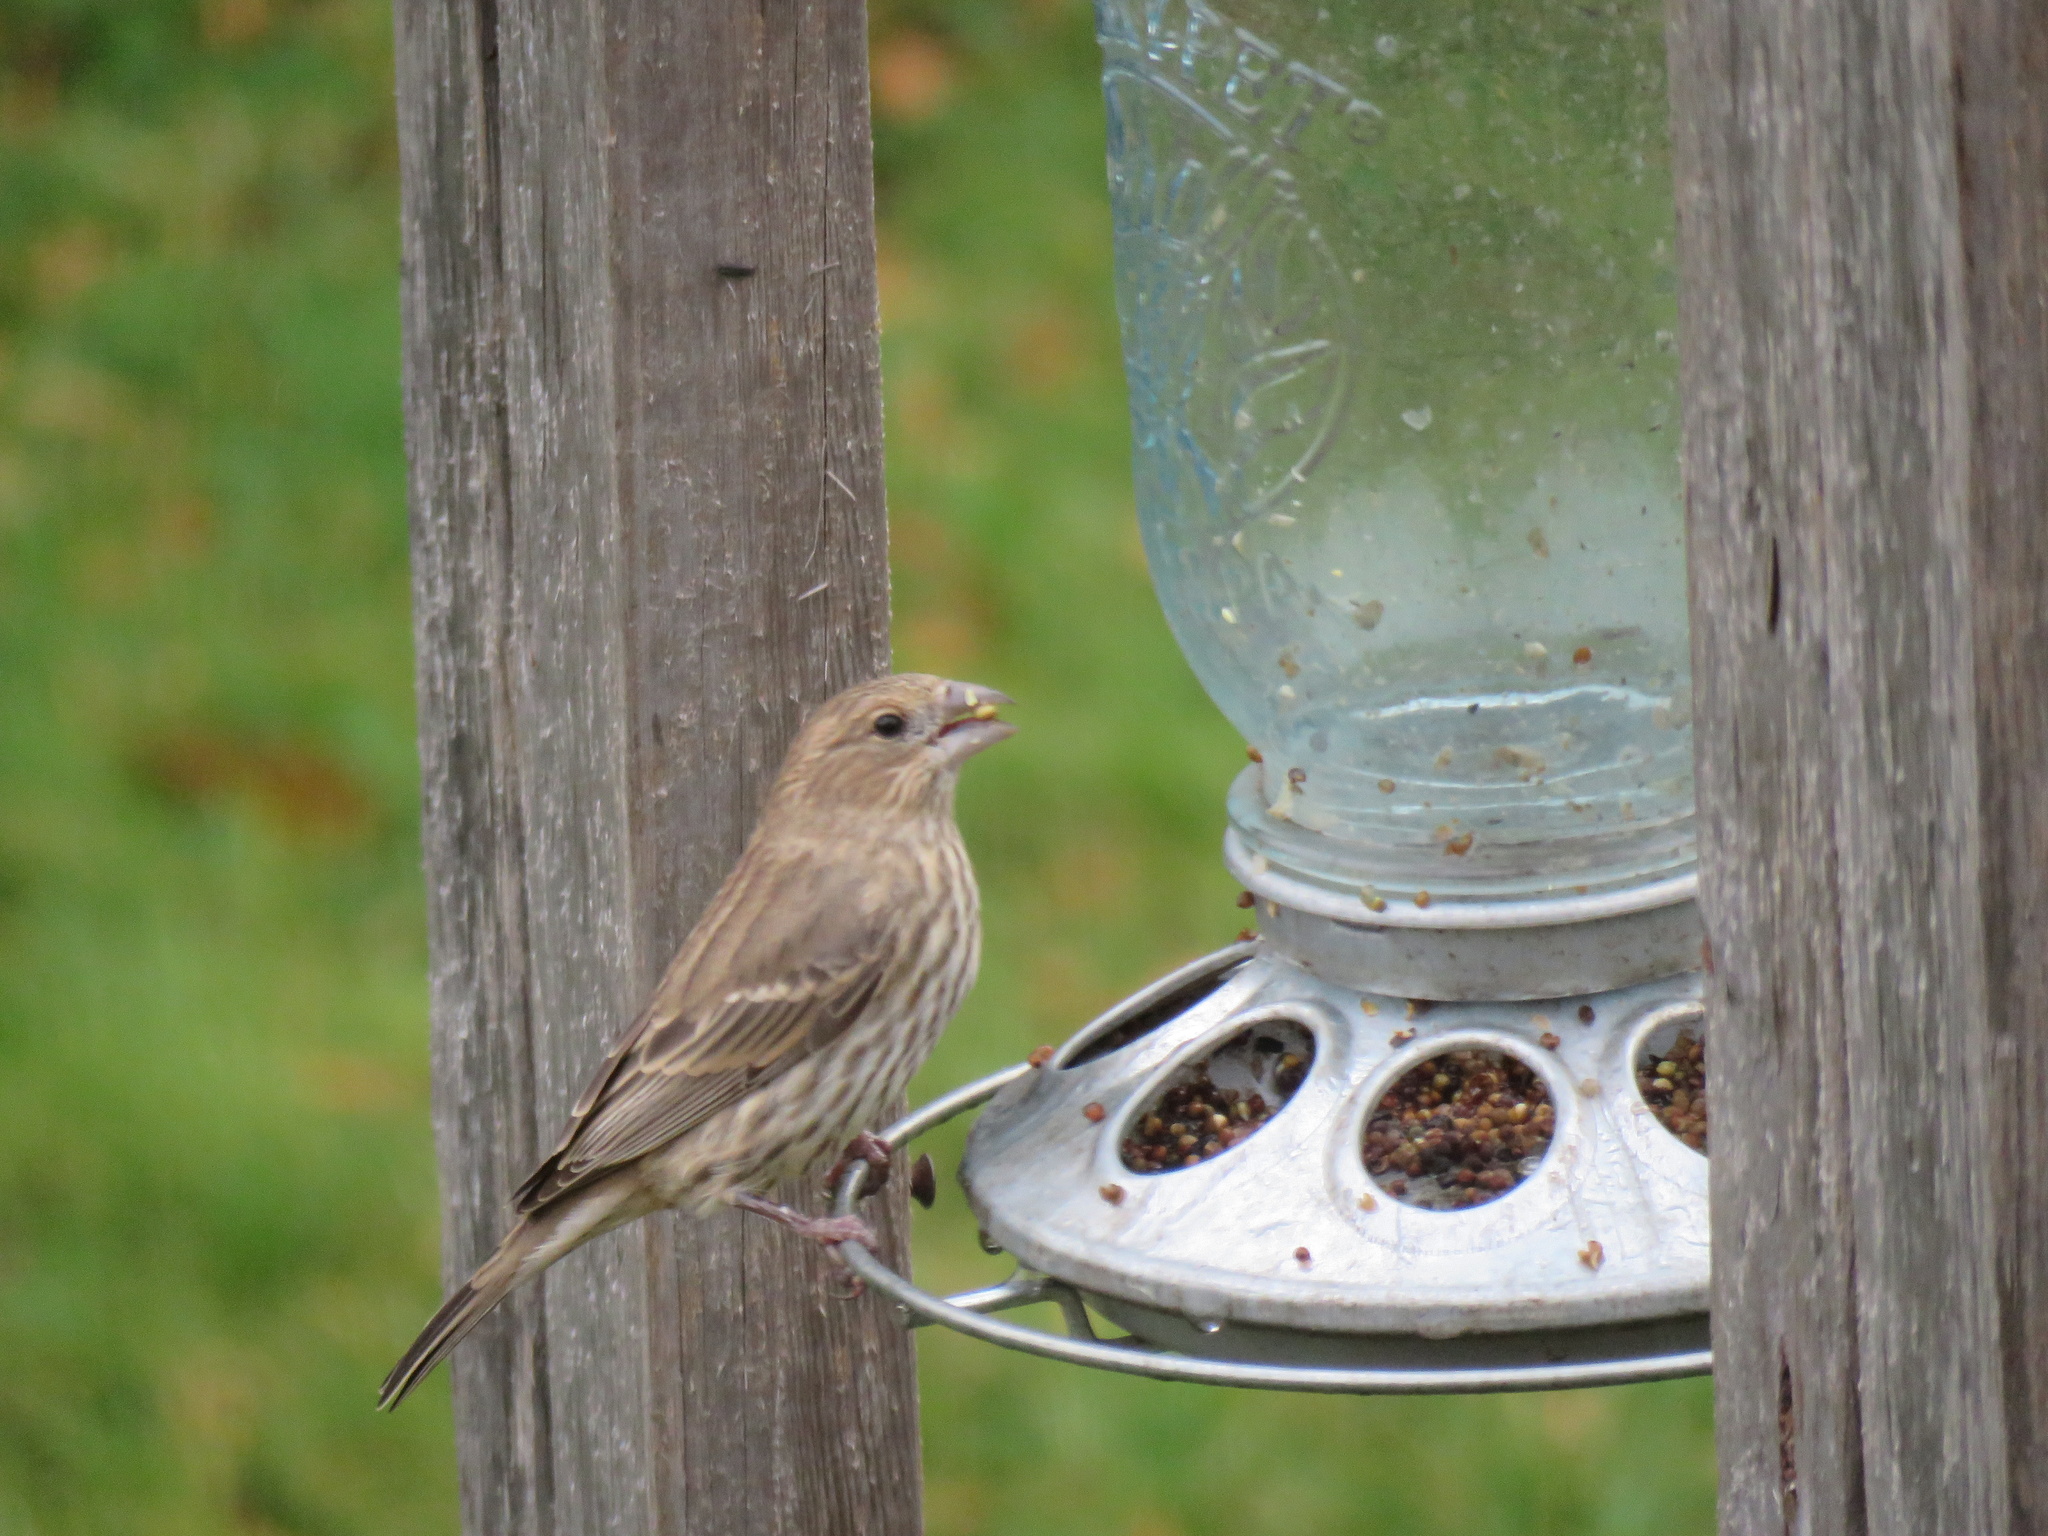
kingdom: Animalia
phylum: Chordata
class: Aves
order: Passeriformes
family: Fringillidae
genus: Haemorhous
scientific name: Haemorhous mexicanus
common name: House finch
